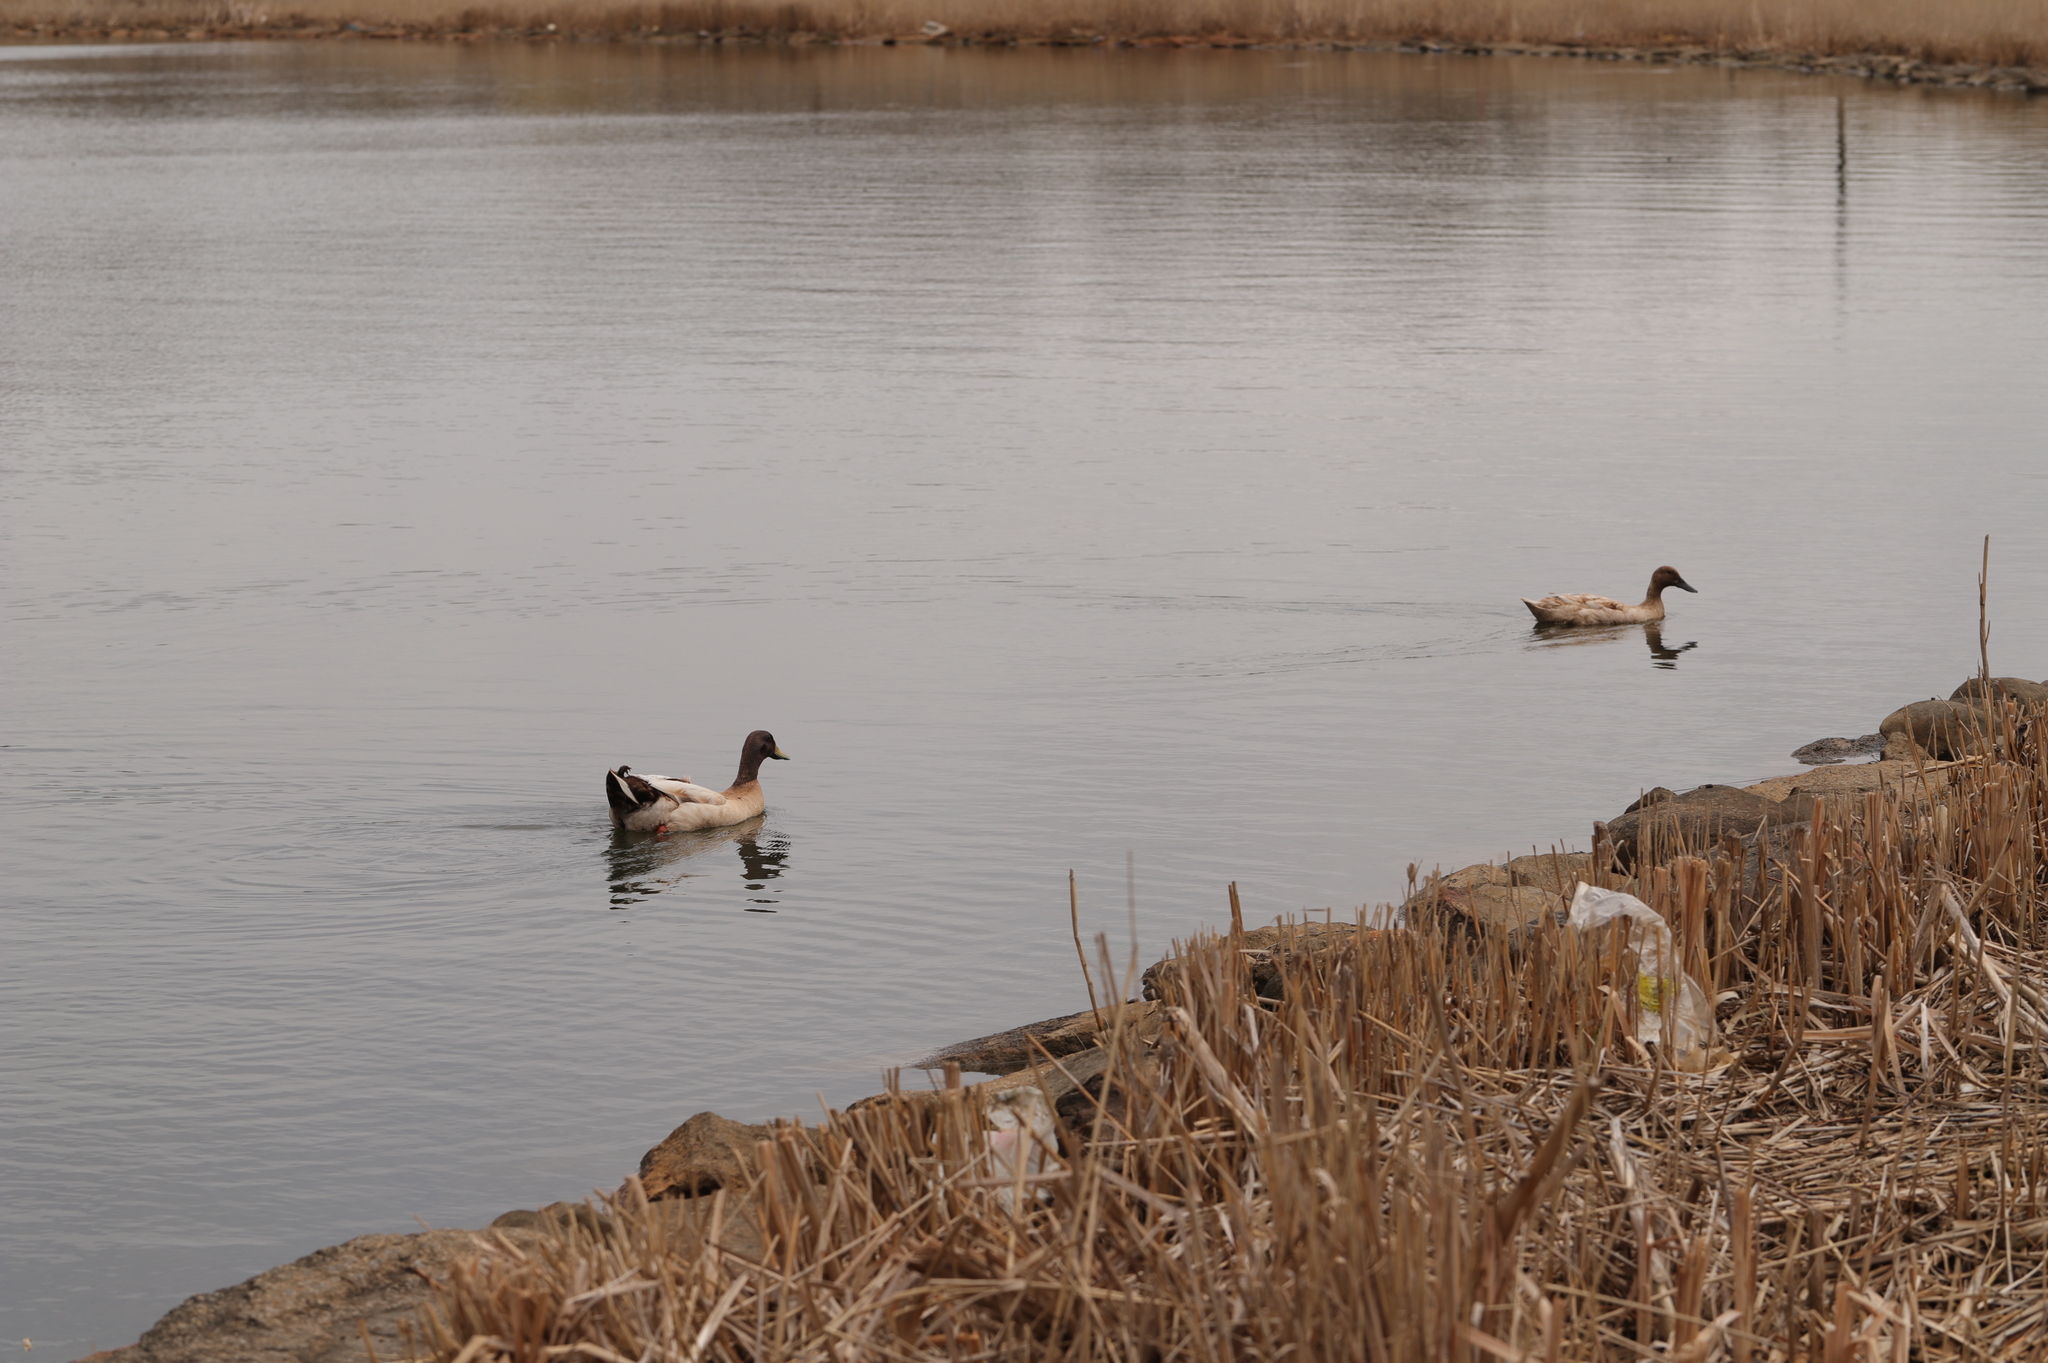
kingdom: Animalia
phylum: Chordata
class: Aves
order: Anseriformes
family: Anatidae
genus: Anas
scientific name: Anas platyrhynchos
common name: Mallard
